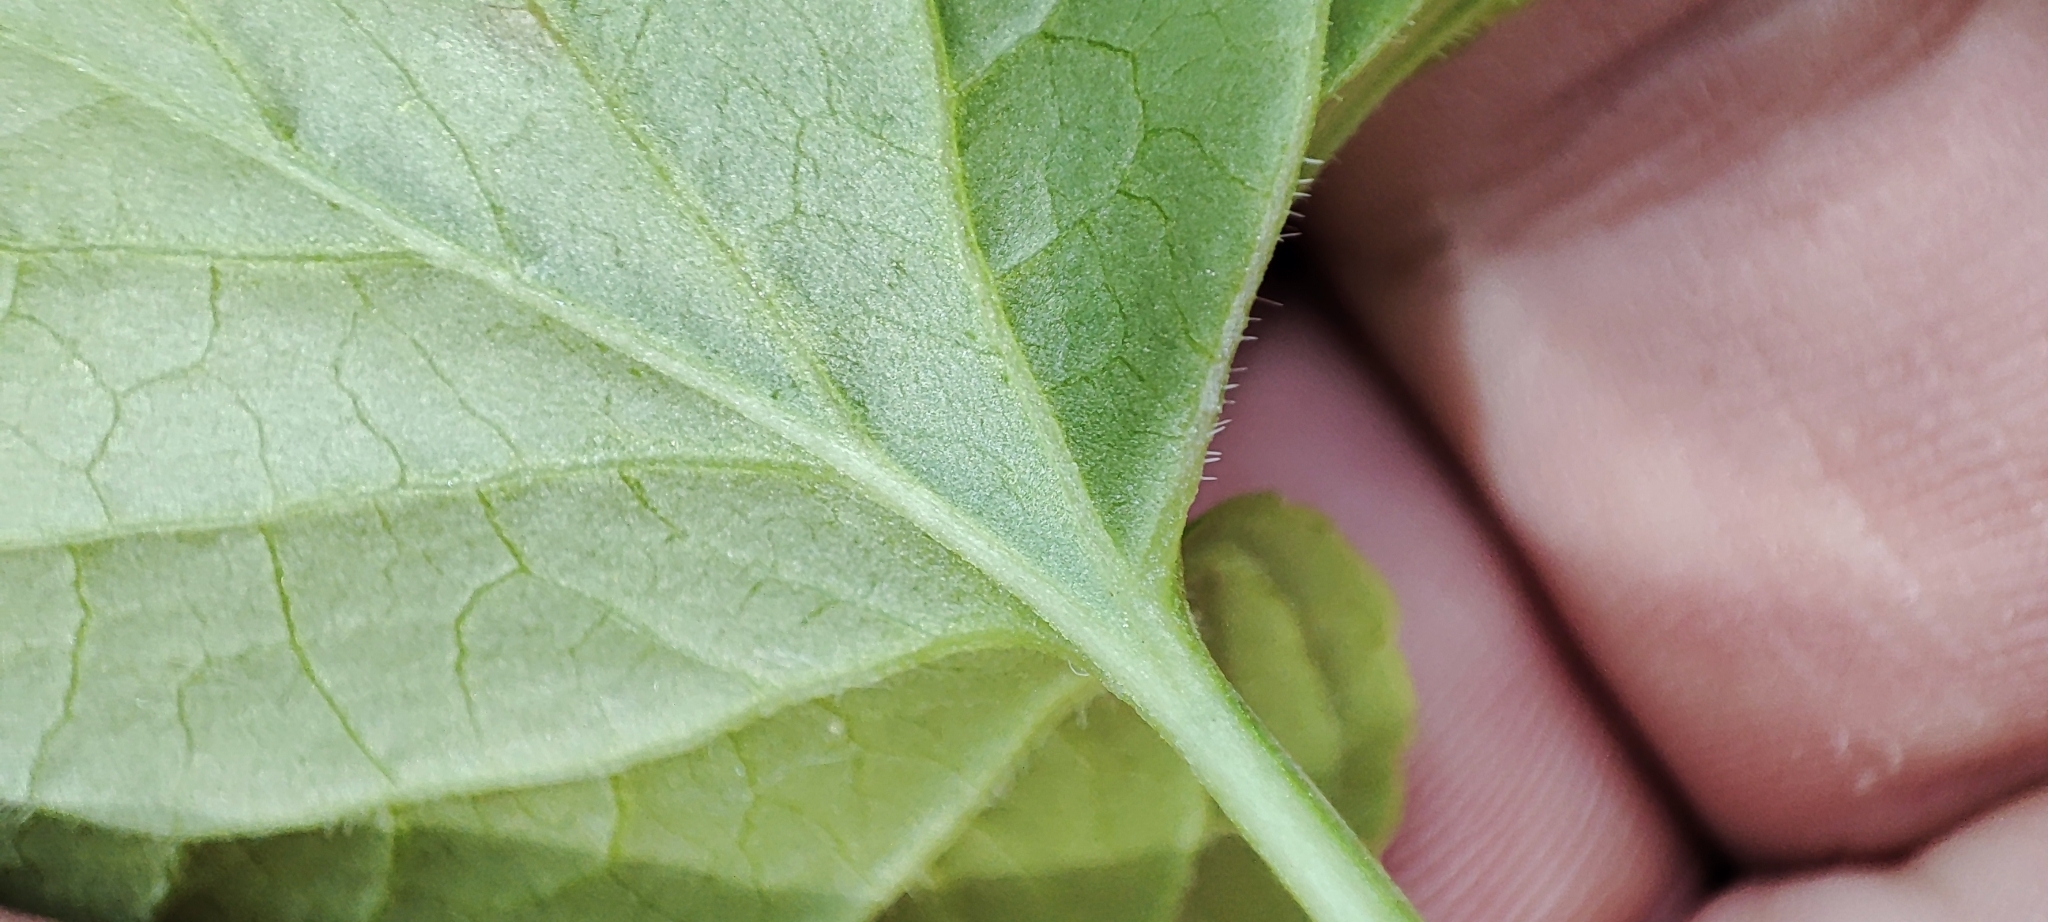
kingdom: Plantae
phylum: Tracheophyta
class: Magnoliopsida
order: Malpighiales
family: Violaceae
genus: Viola
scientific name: Viola mirabilis
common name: Wonder violet
